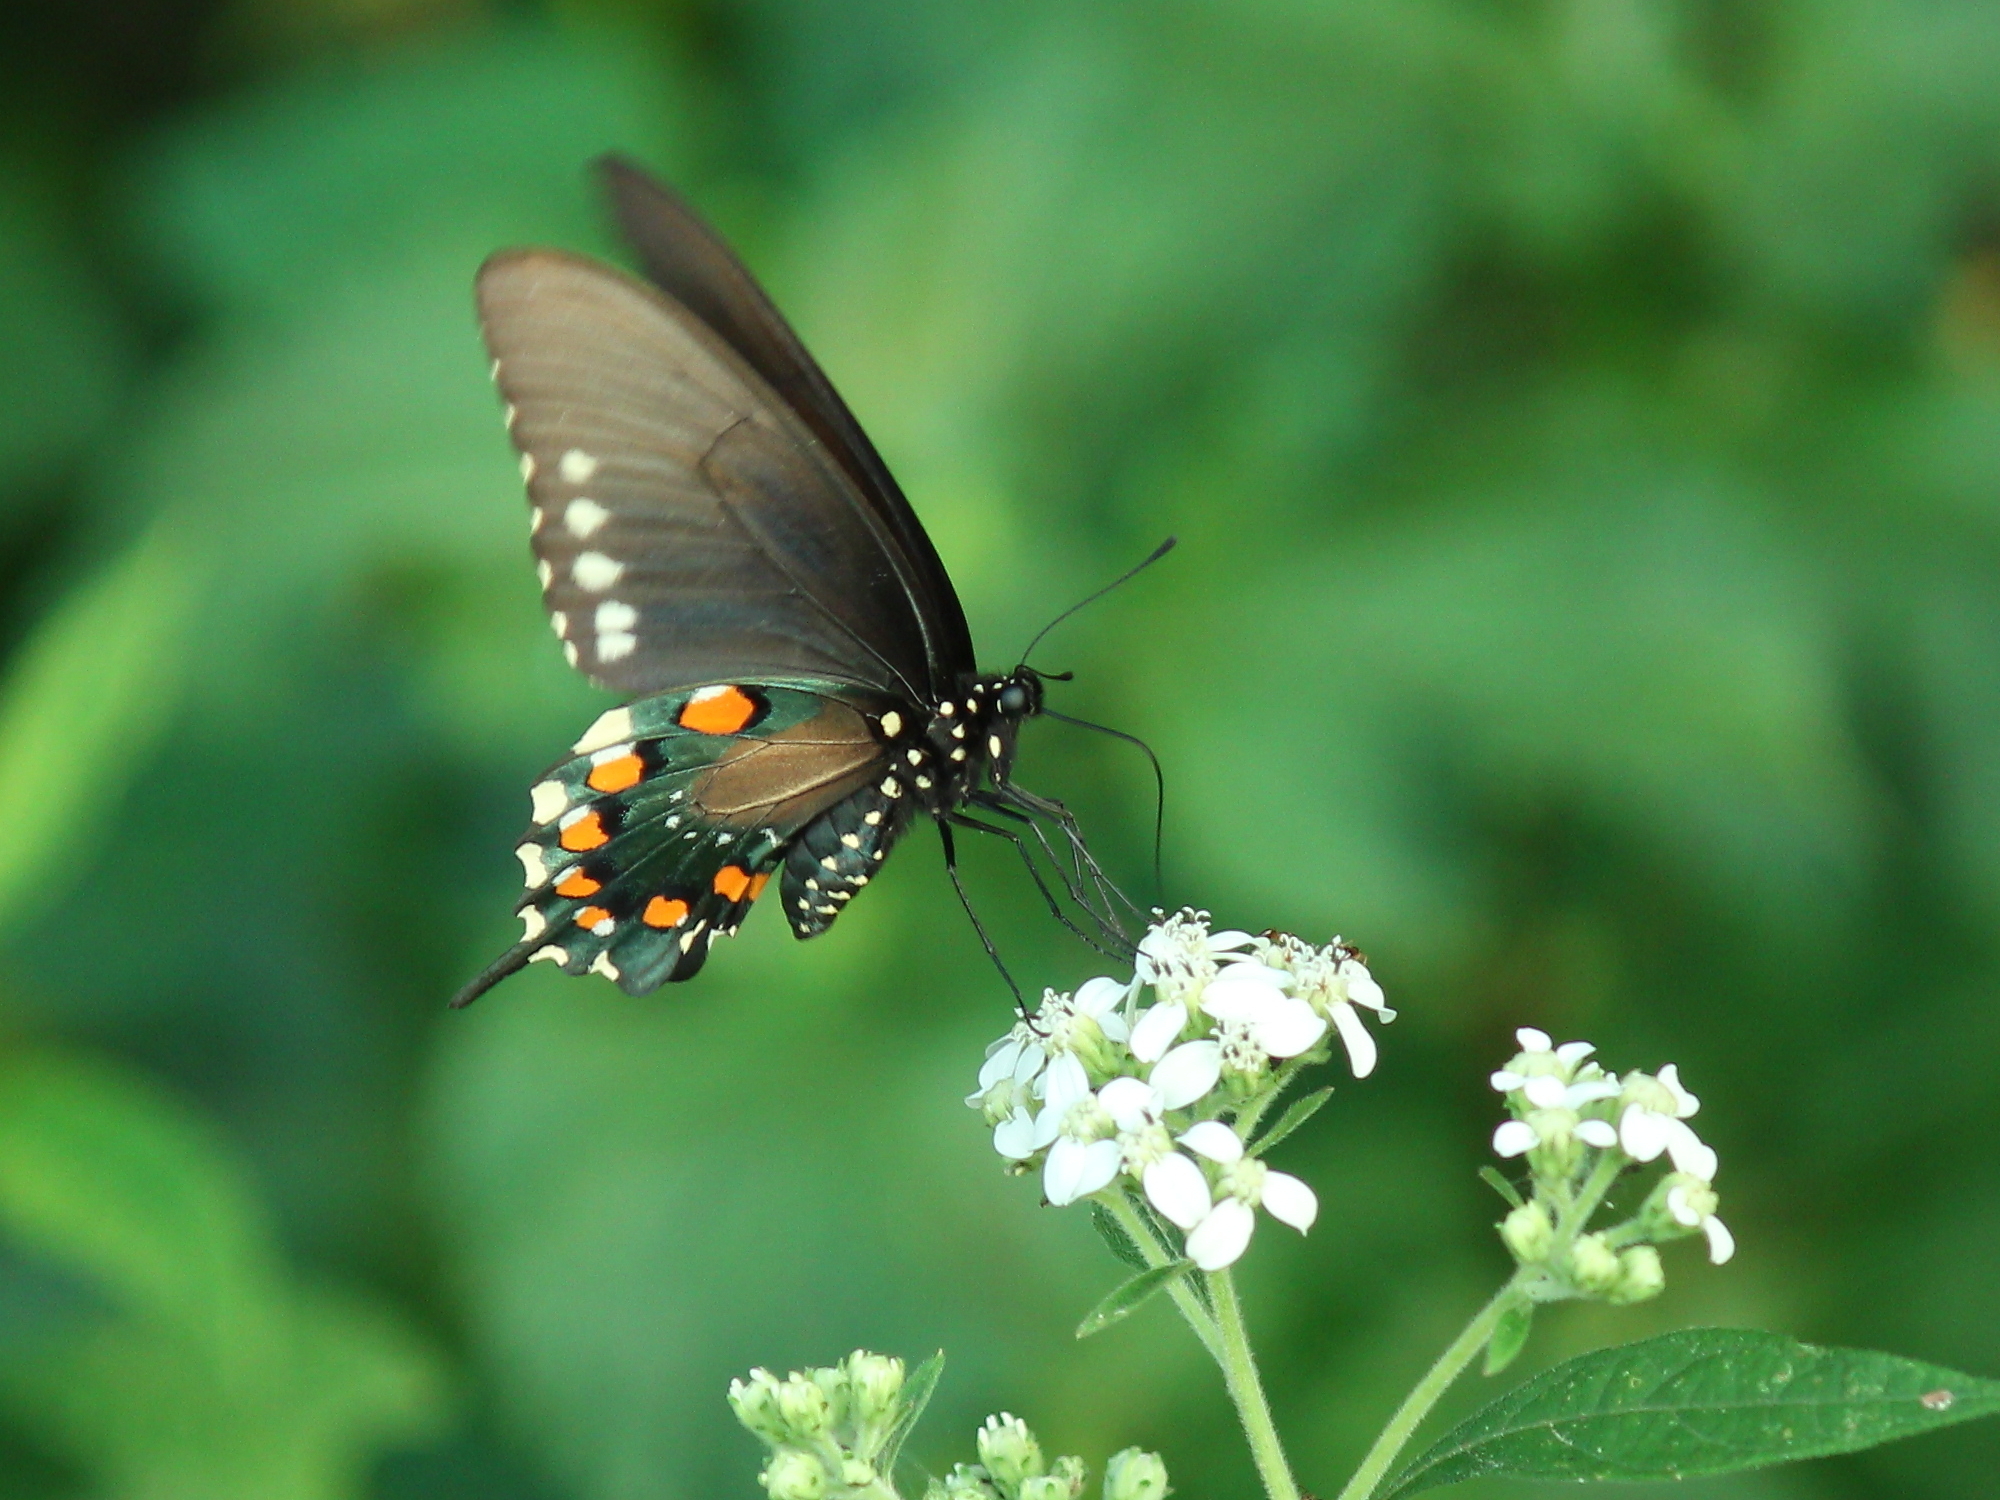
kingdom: Animalia
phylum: Arthropoda
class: Insecta
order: Lepidoptera
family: Papilionidae
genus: Battus
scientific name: Battus philenor
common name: Pipevine swallowtail
